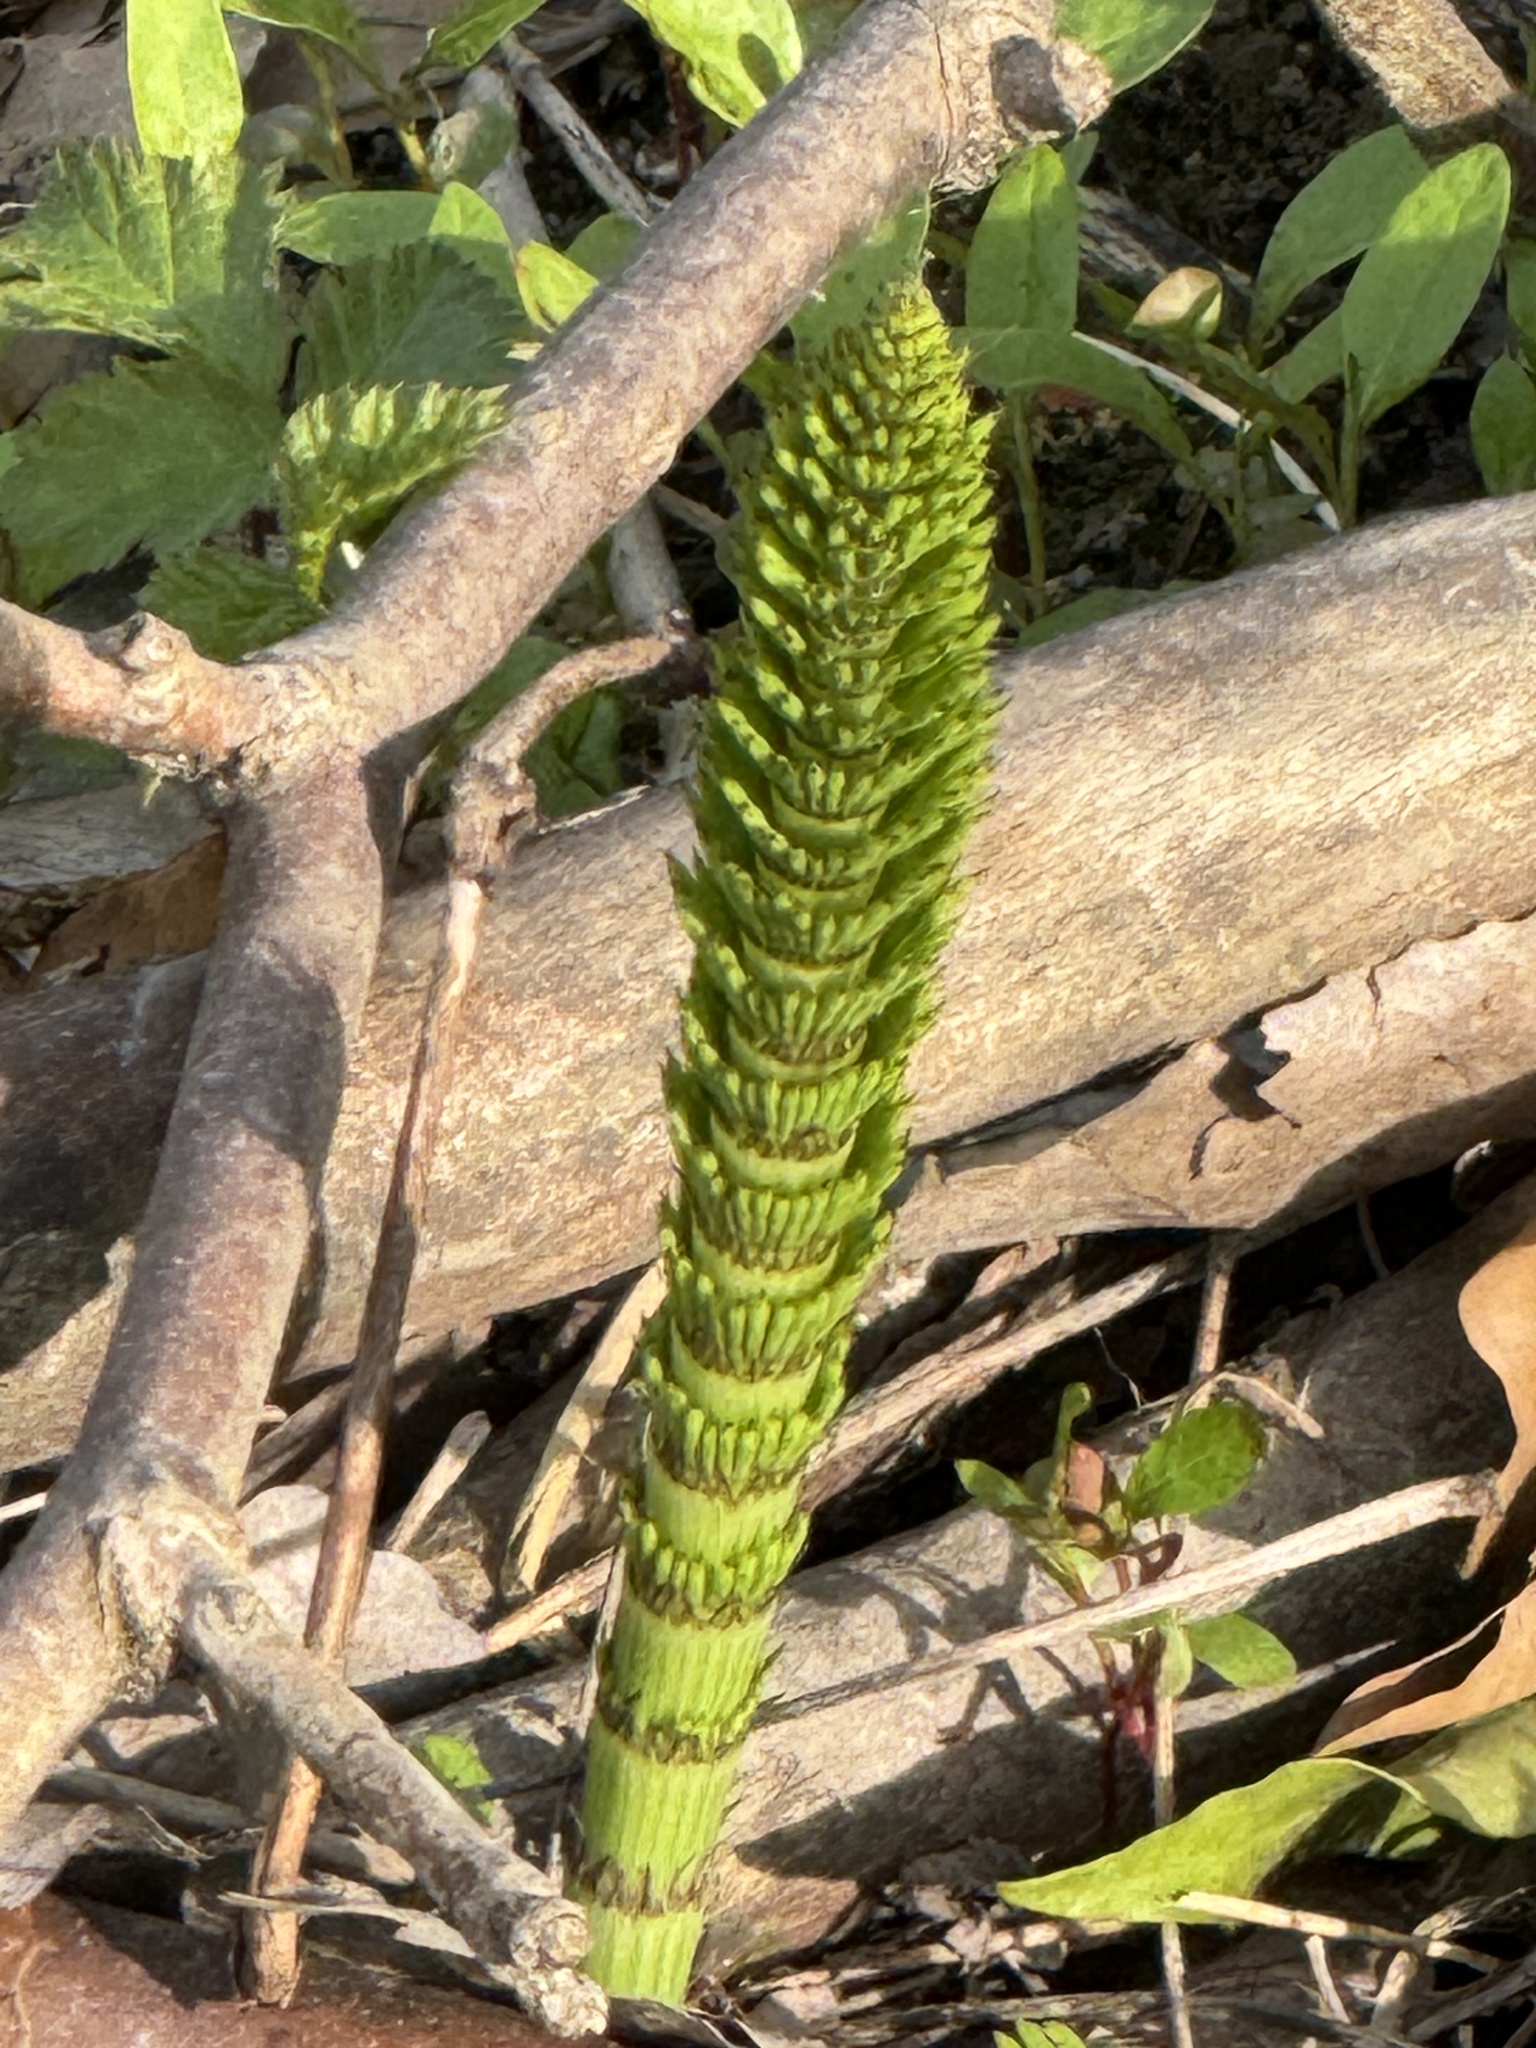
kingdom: Plantae
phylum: Tracheophyta
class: Polypodiopsida
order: Equisetales
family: Equisetaceae
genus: Equisetum
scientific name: Equisetum telmateia
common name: Great horsetail
